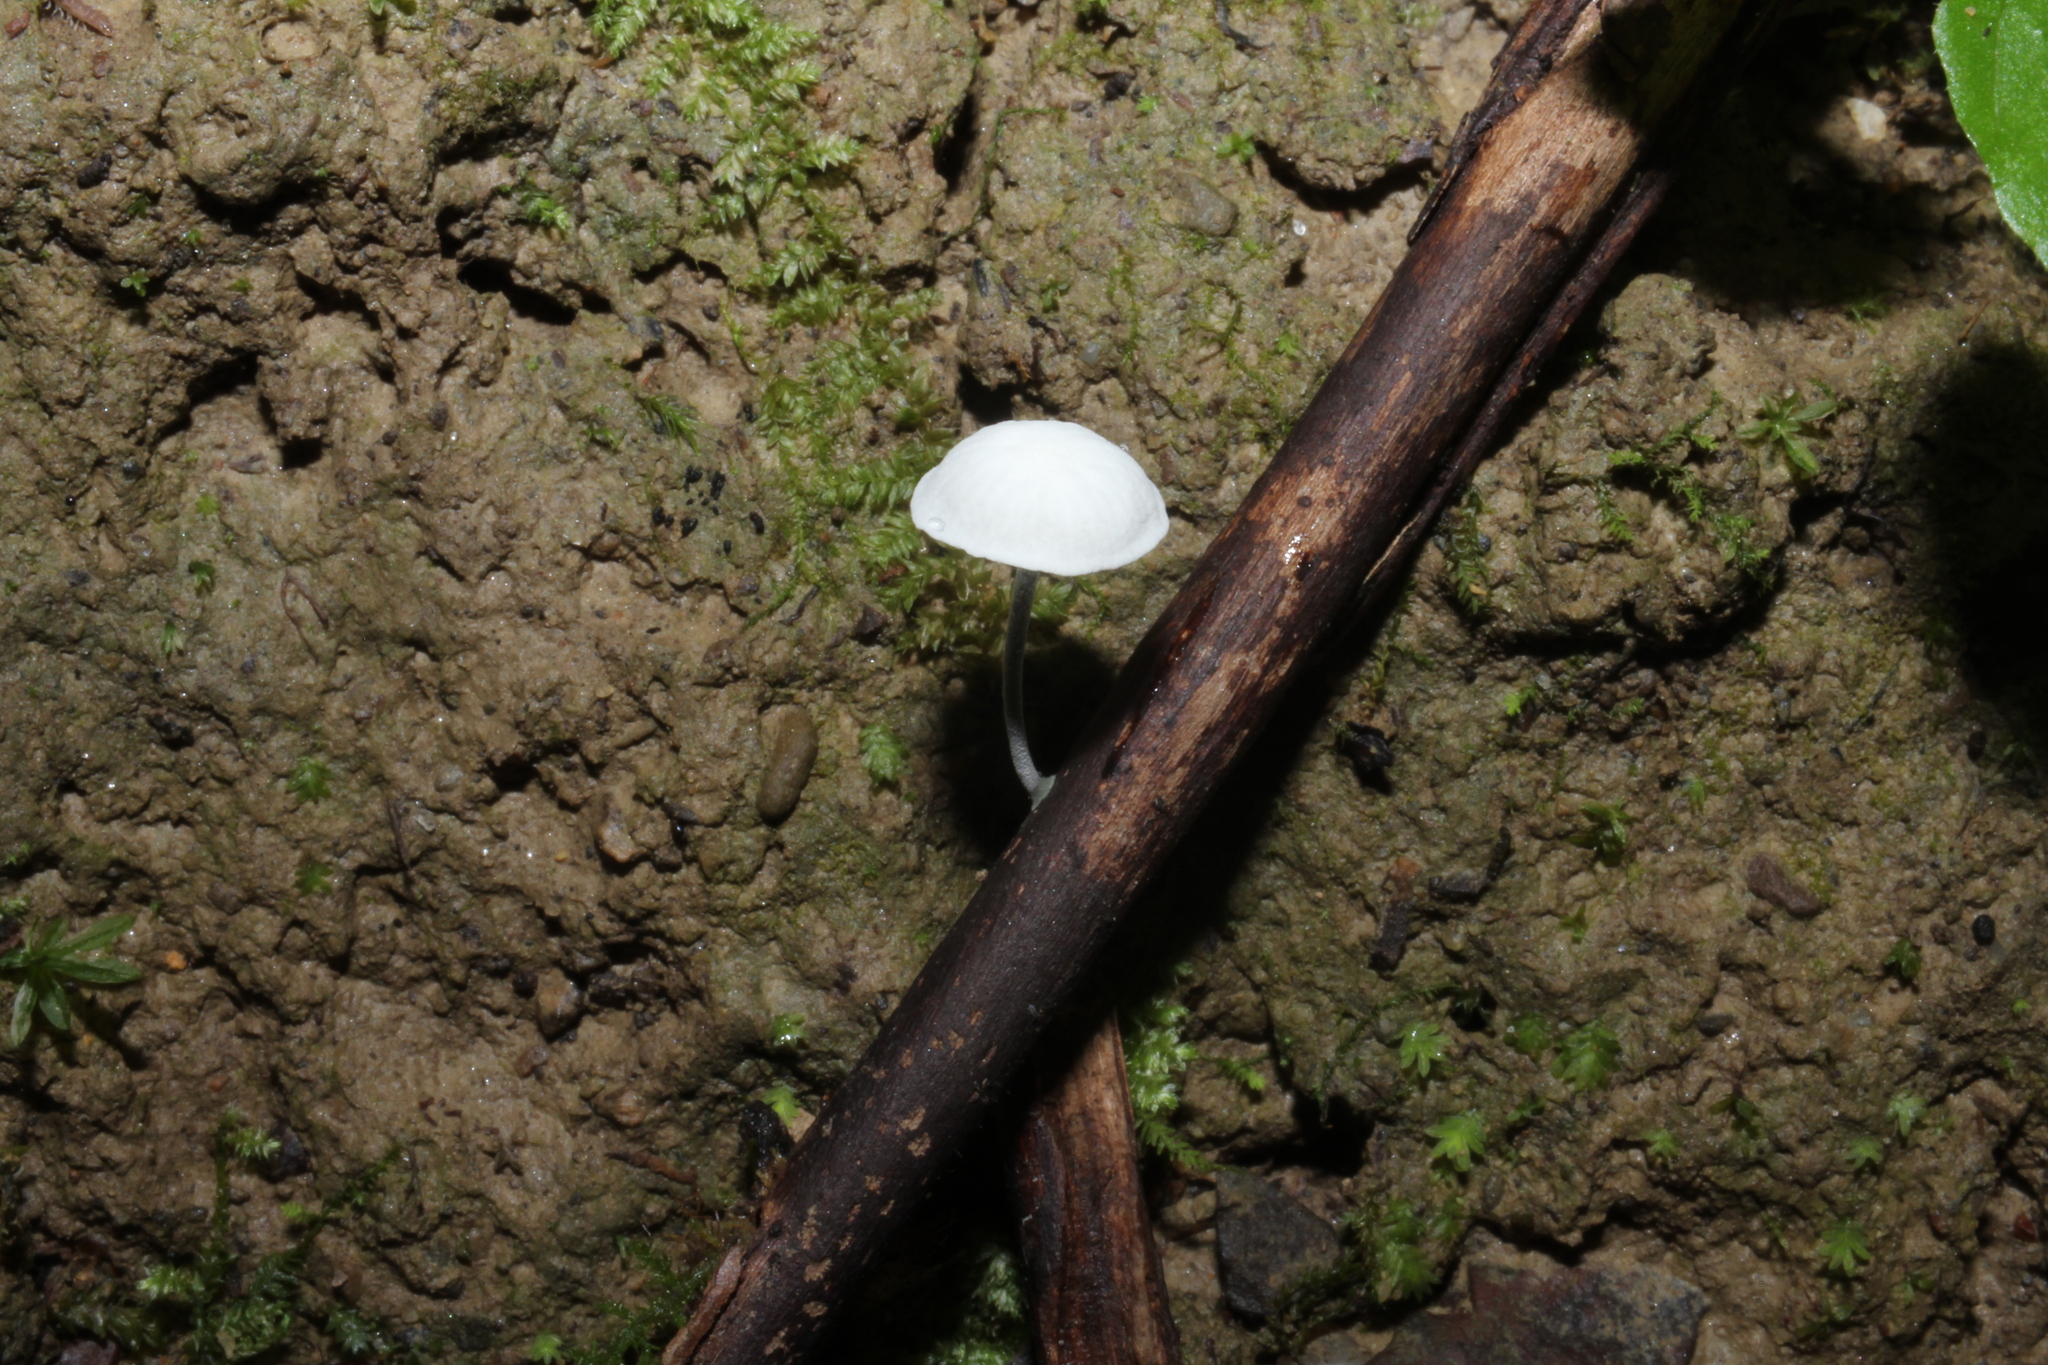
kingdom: Fungi
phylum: Basidiomycota
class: Agaricomycetes
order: Agaricales
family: Marasmiaceae
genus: Tetrapyrgos
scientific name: Tetrapyrgos nigripes
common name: Black-stalked marasmius
